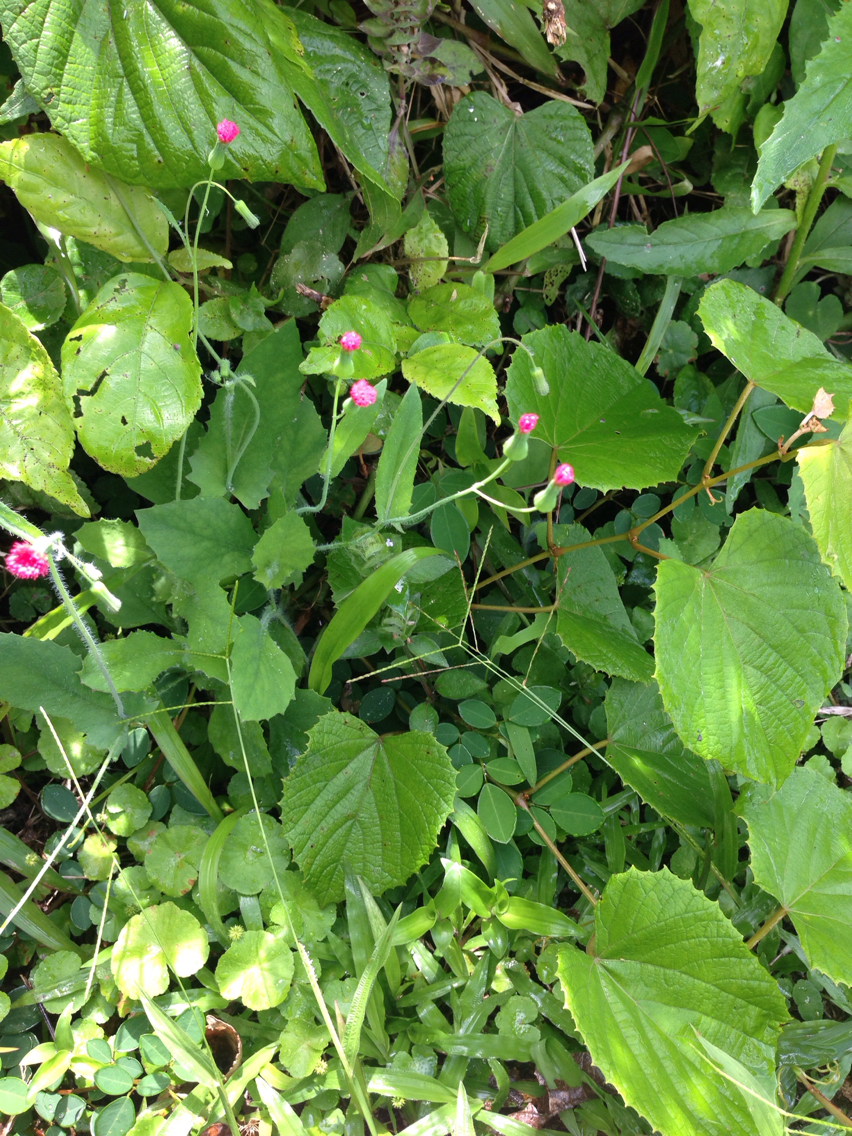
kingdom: Plantae
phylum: Tracheophyta
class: Magnoliopsida
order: Asterales
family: Asteraceae
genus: Emilia
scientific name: Emilia fosbergii
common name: Florida tasselflower
